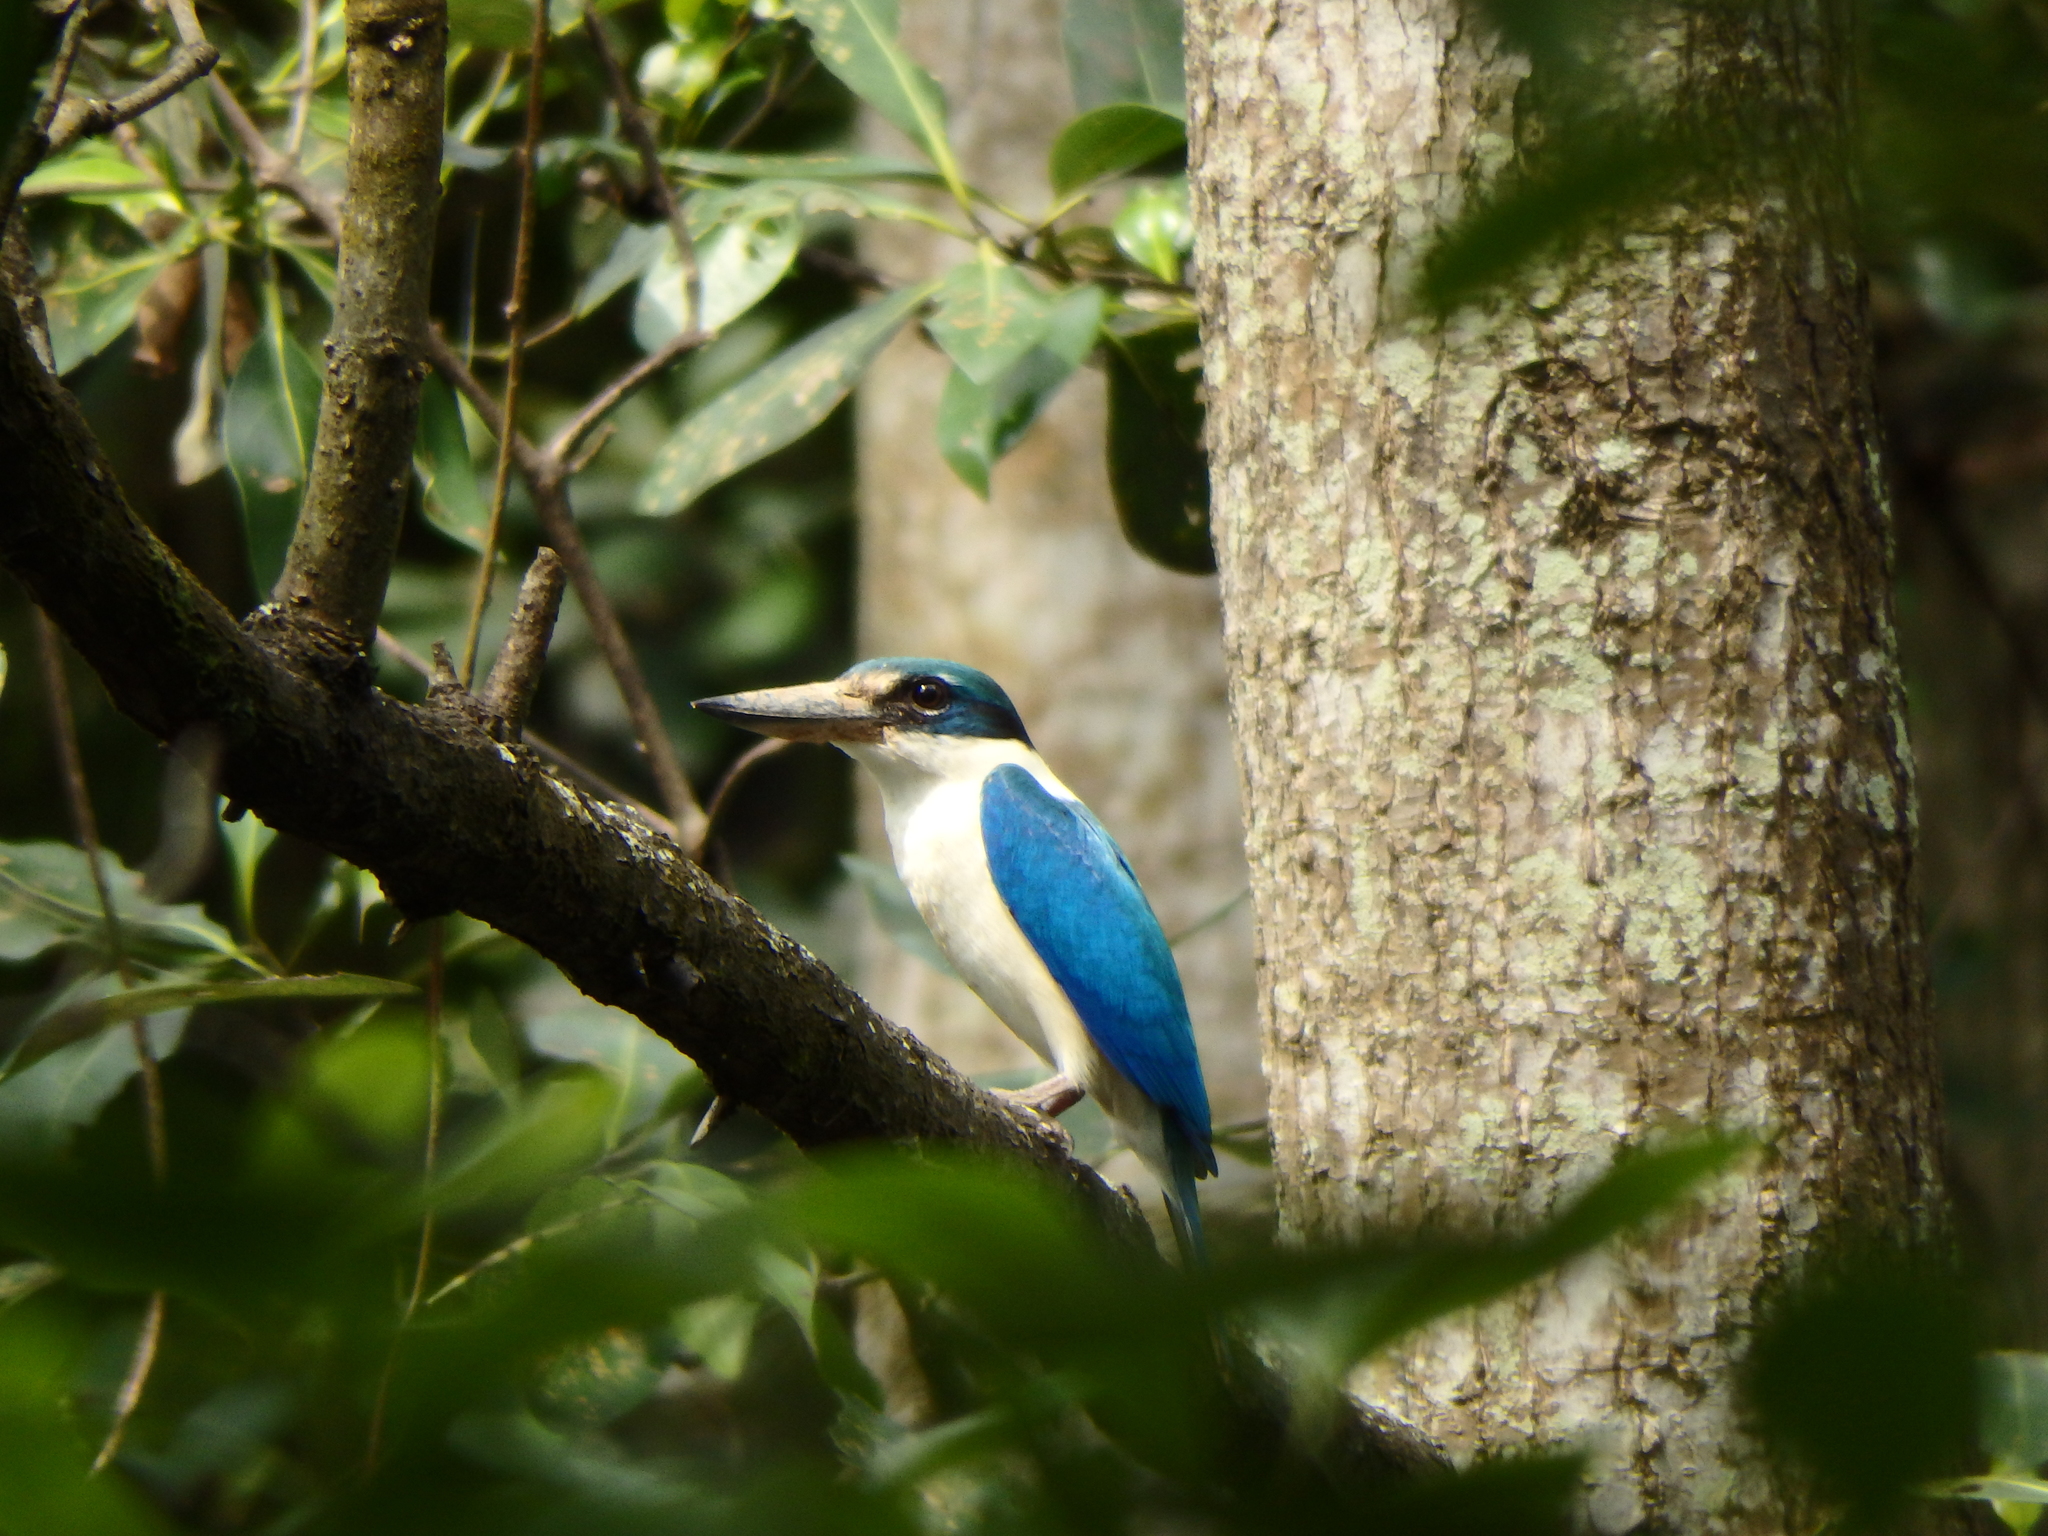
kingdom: Animalia
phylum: Chordata
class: Aves
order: Coraciiformes
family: Alcedinidae
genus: Todiramphus
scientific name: Todiramphus chloris
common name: Collared kingfisher
